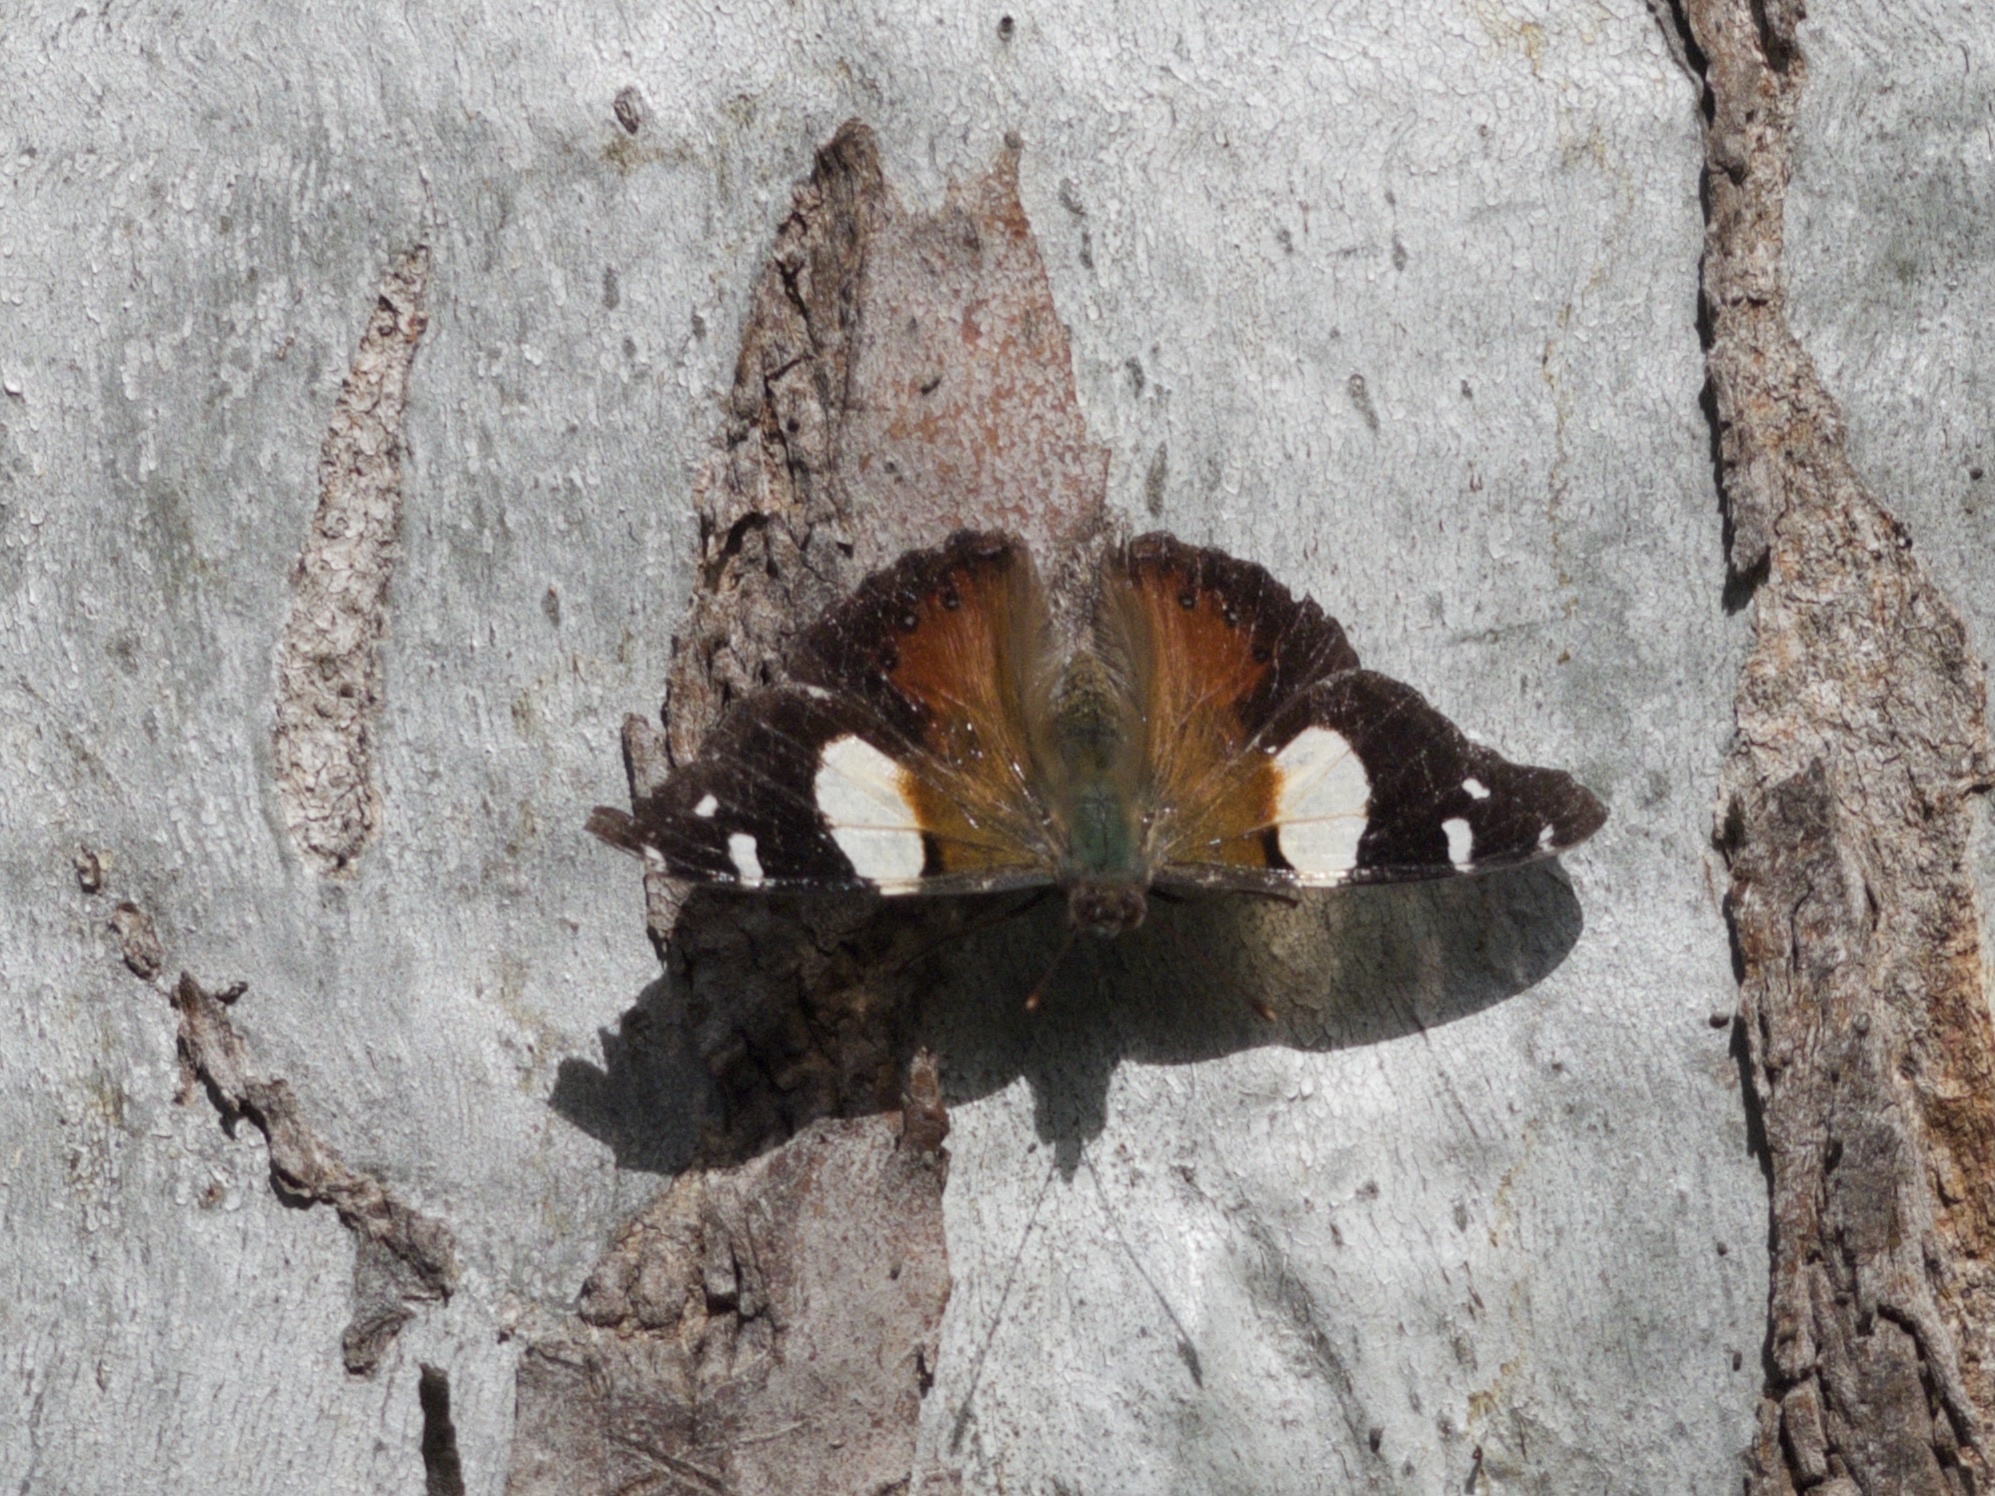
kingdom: Animalia
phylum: Arthropoda
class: Insecta
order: Lepidoptera
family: Nymphalidae
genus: Vanessa
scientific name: Vanessa itea
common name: Yellow admiral
